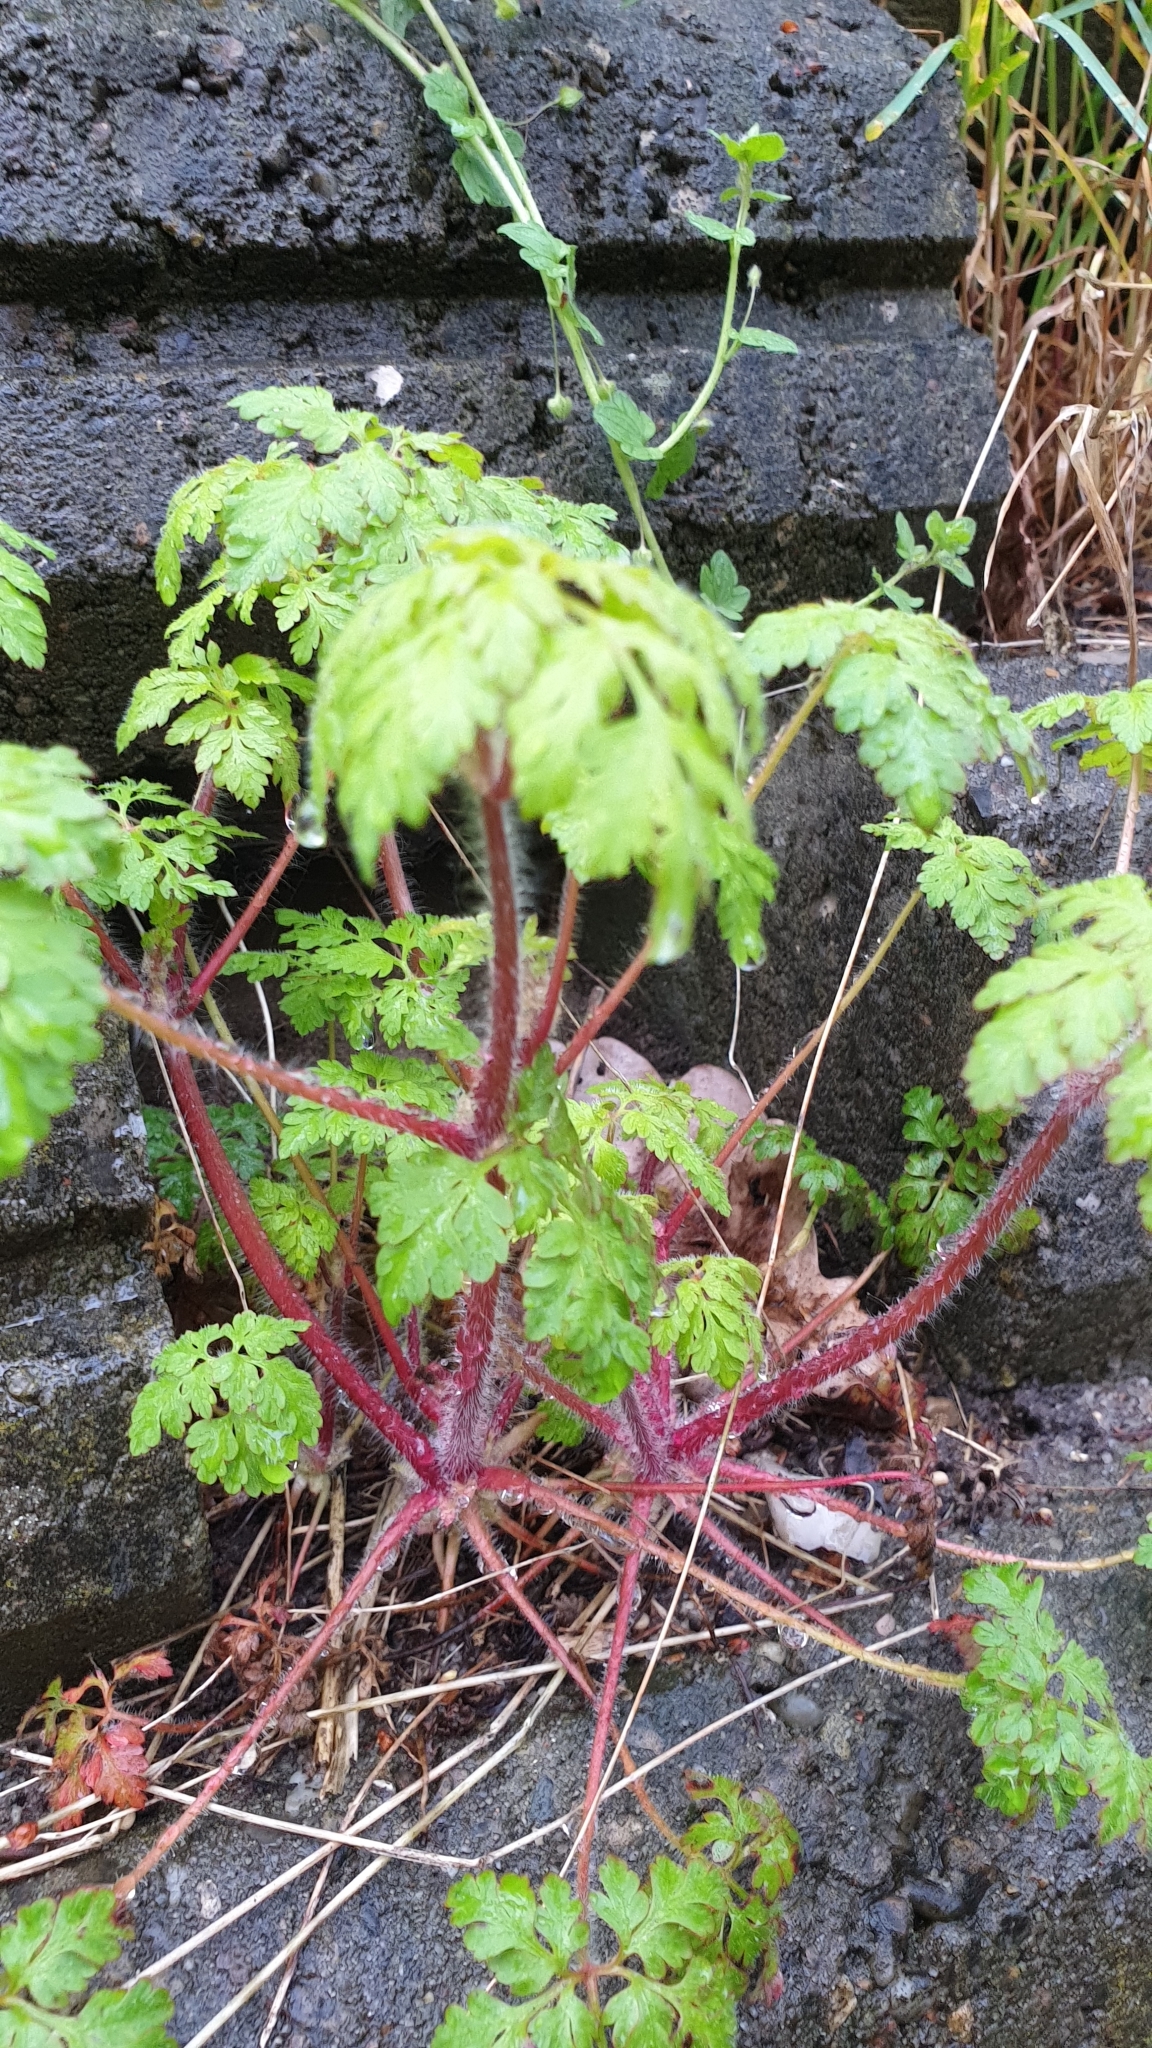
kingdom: Plantae
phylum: Tracheophyta
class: Magnoliopsida
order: Geraniales
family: Geraniaceae
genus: Geranium
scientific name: Geranium robertianum
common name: Herb-robert
